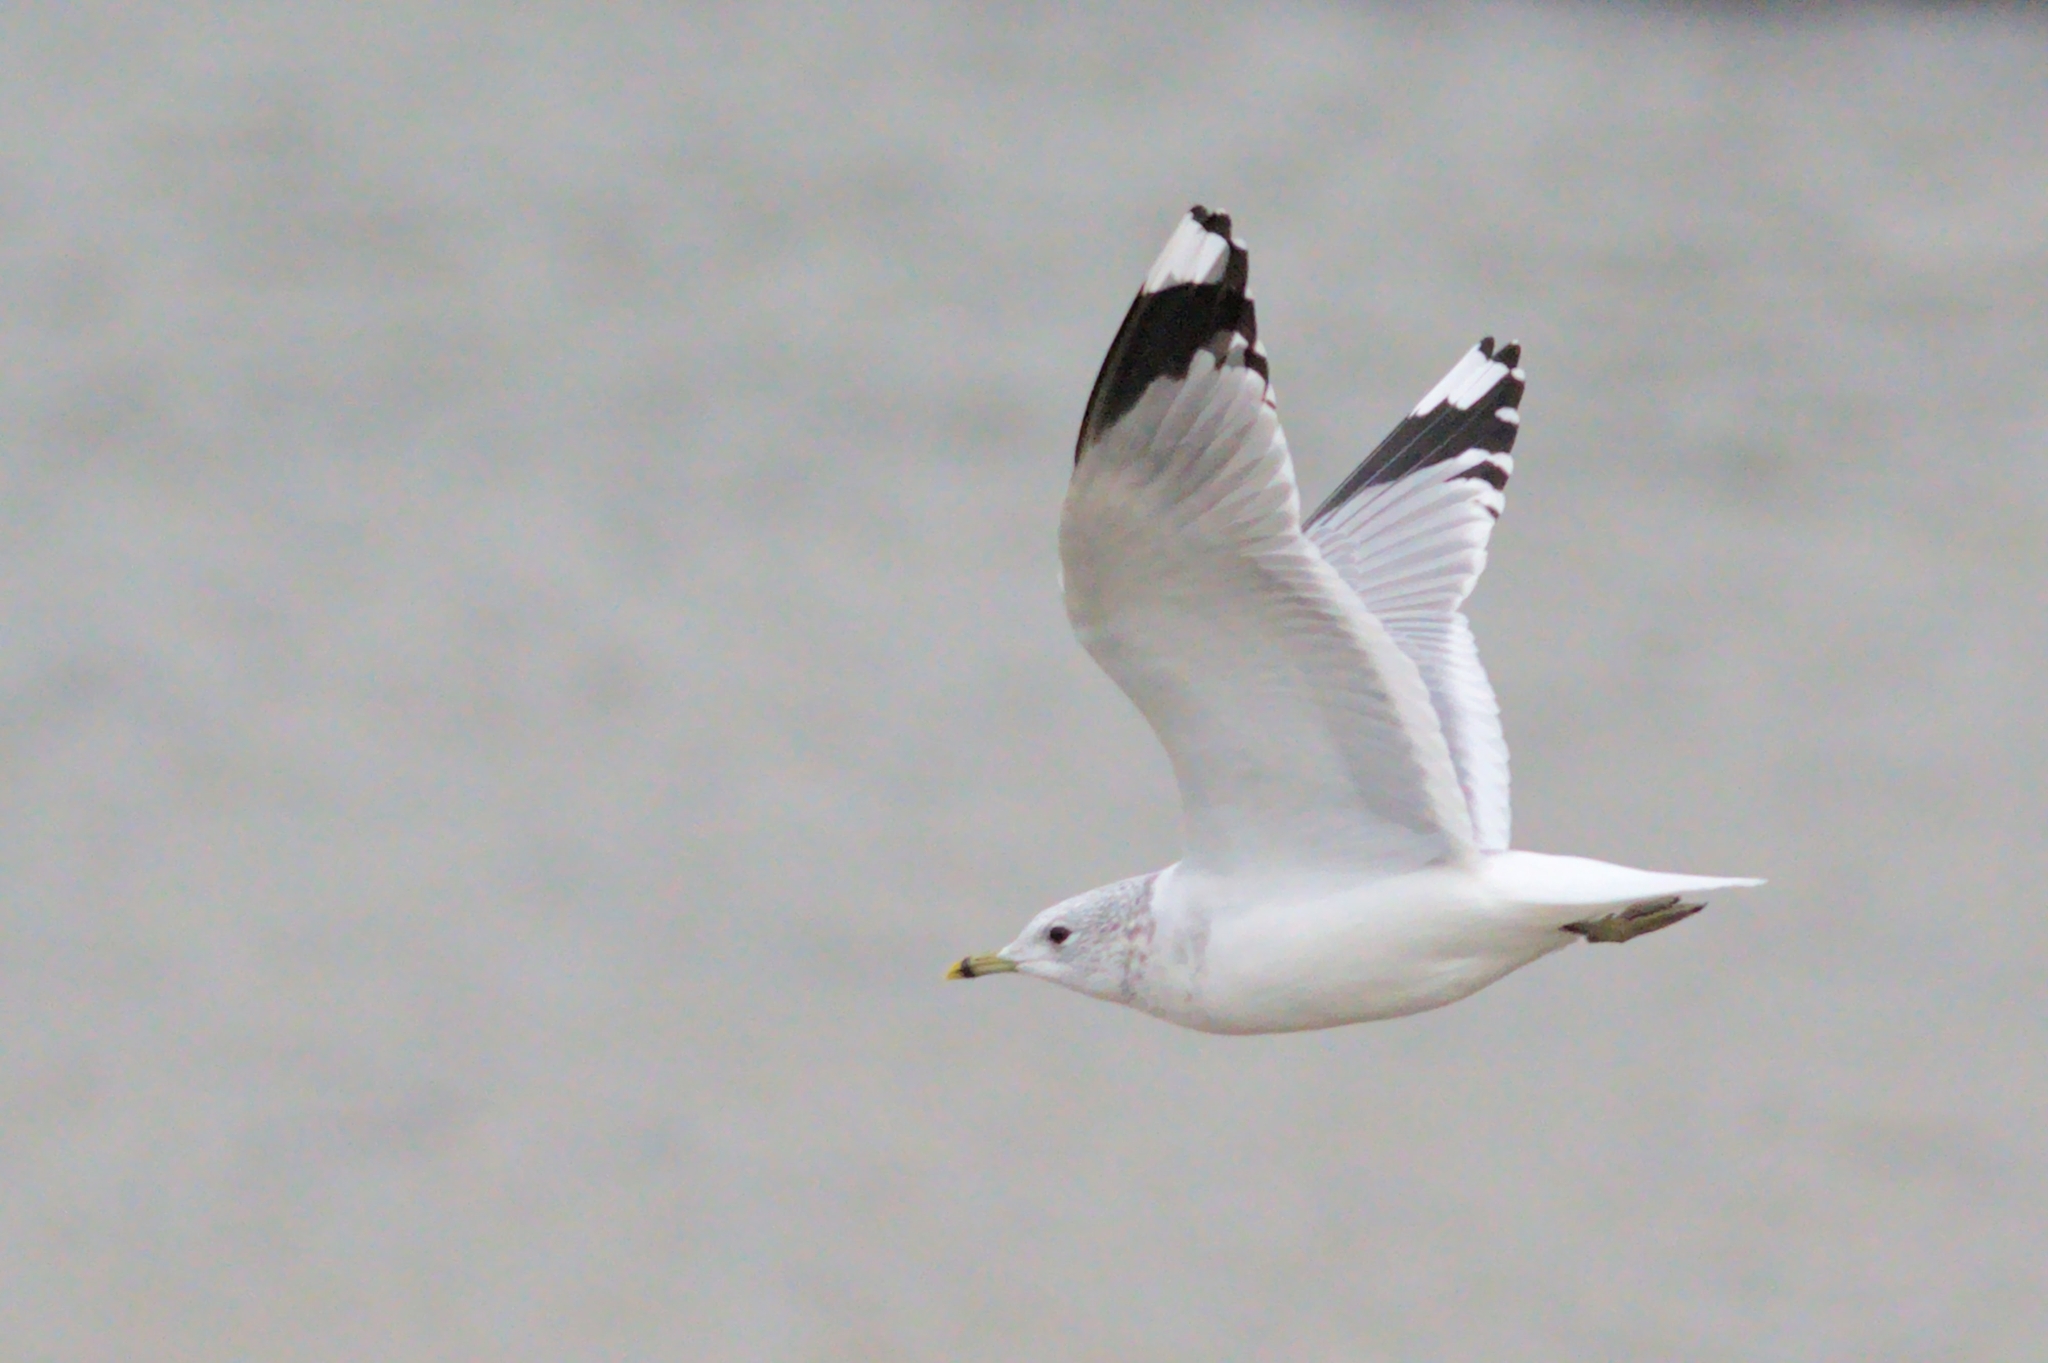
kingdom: Animalia
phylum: Chordata
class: Aves
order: Charadriiformes
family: Laridae
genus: Larus
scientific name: Larus canus
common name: Mew gull
